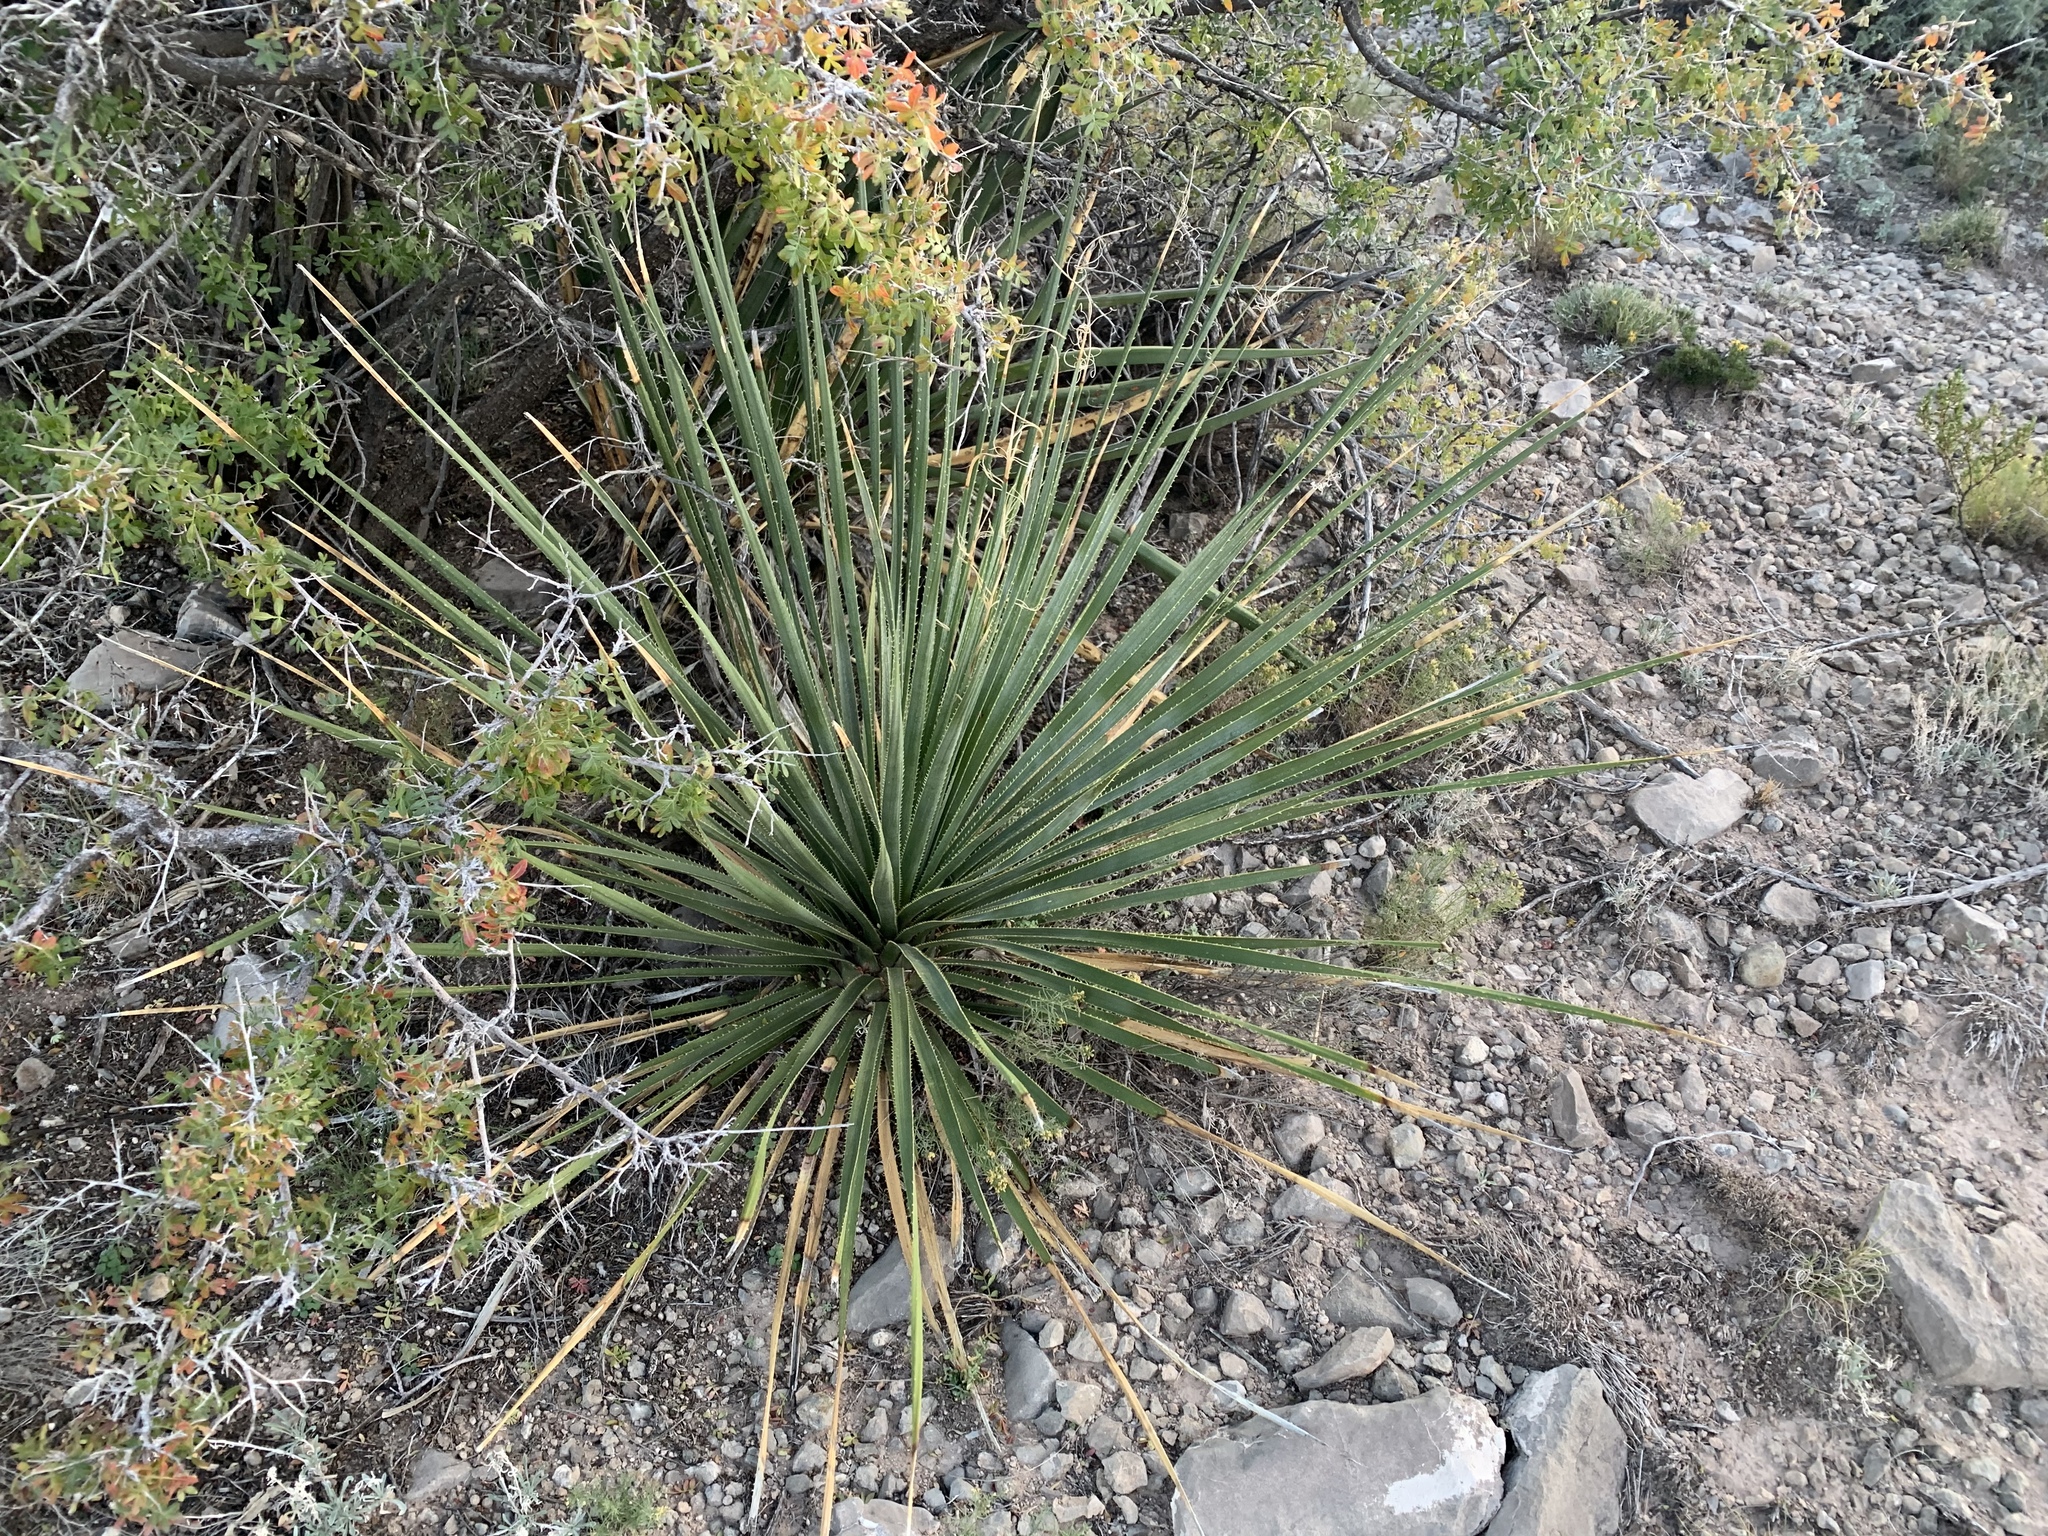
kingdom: Plantae
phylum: Tracheophyta
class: Liliopsida
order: Asparagales
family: Asparagaceae
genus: Dasylirion
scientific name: Dasylirion wheeleri
